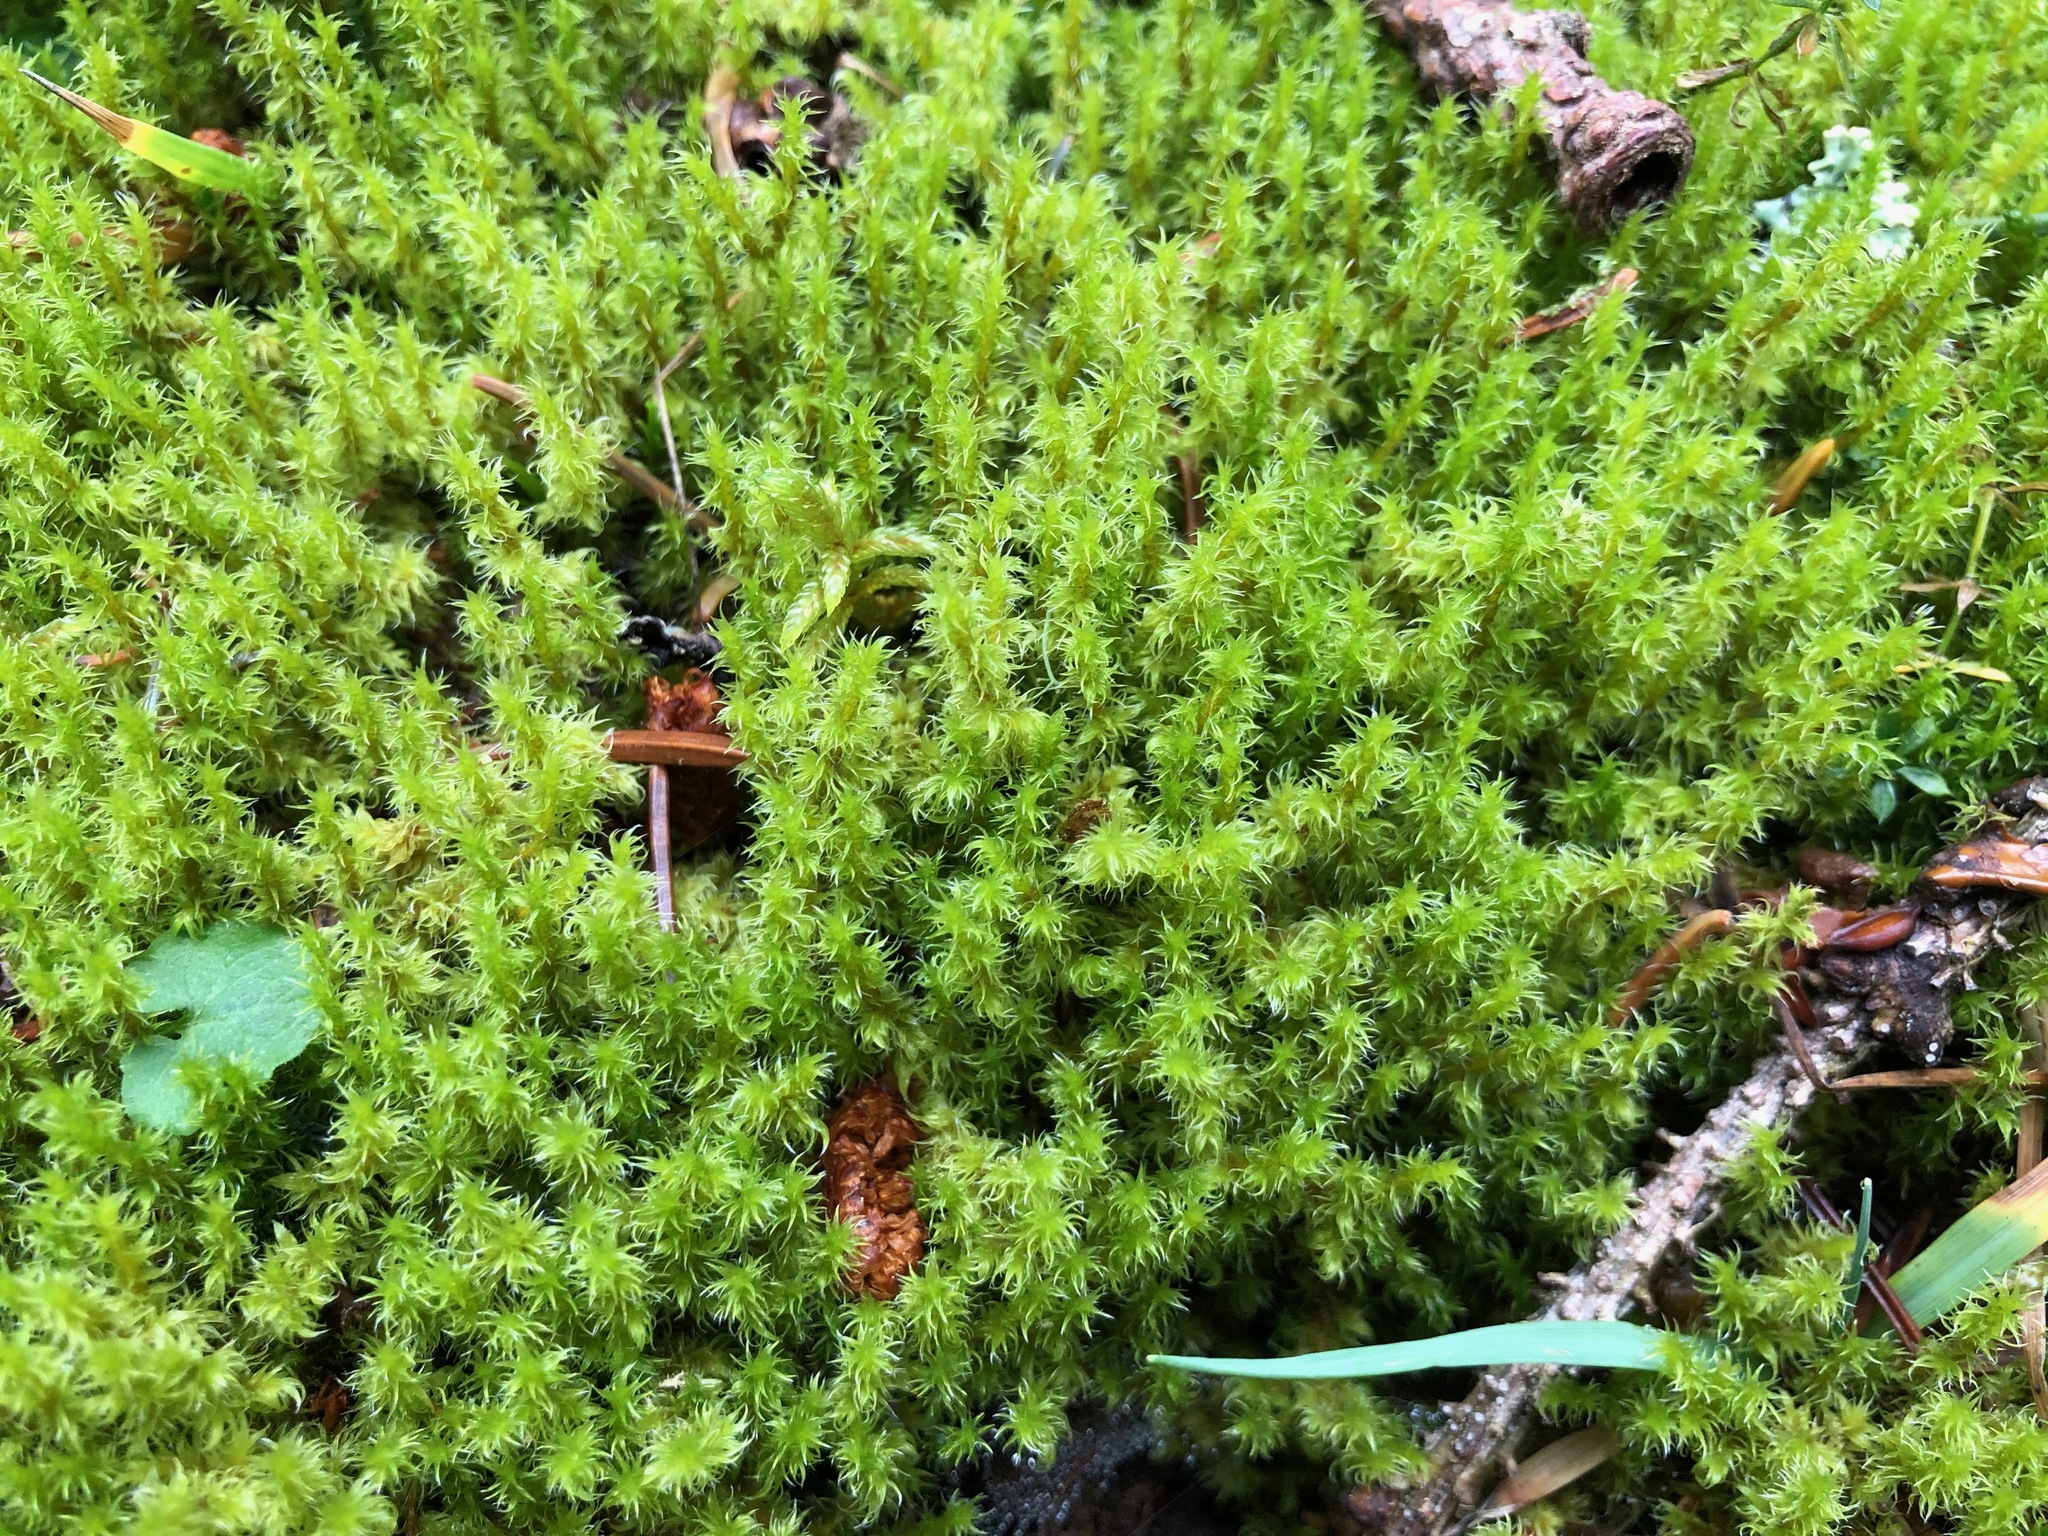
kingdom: Plantae
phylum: Bryophyta
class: Bryopsida
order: Grimmiales
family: Grimmiaceae
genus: Niphotrichum
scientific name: Niphotrichum canescens
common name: Hoary fringe-moss
